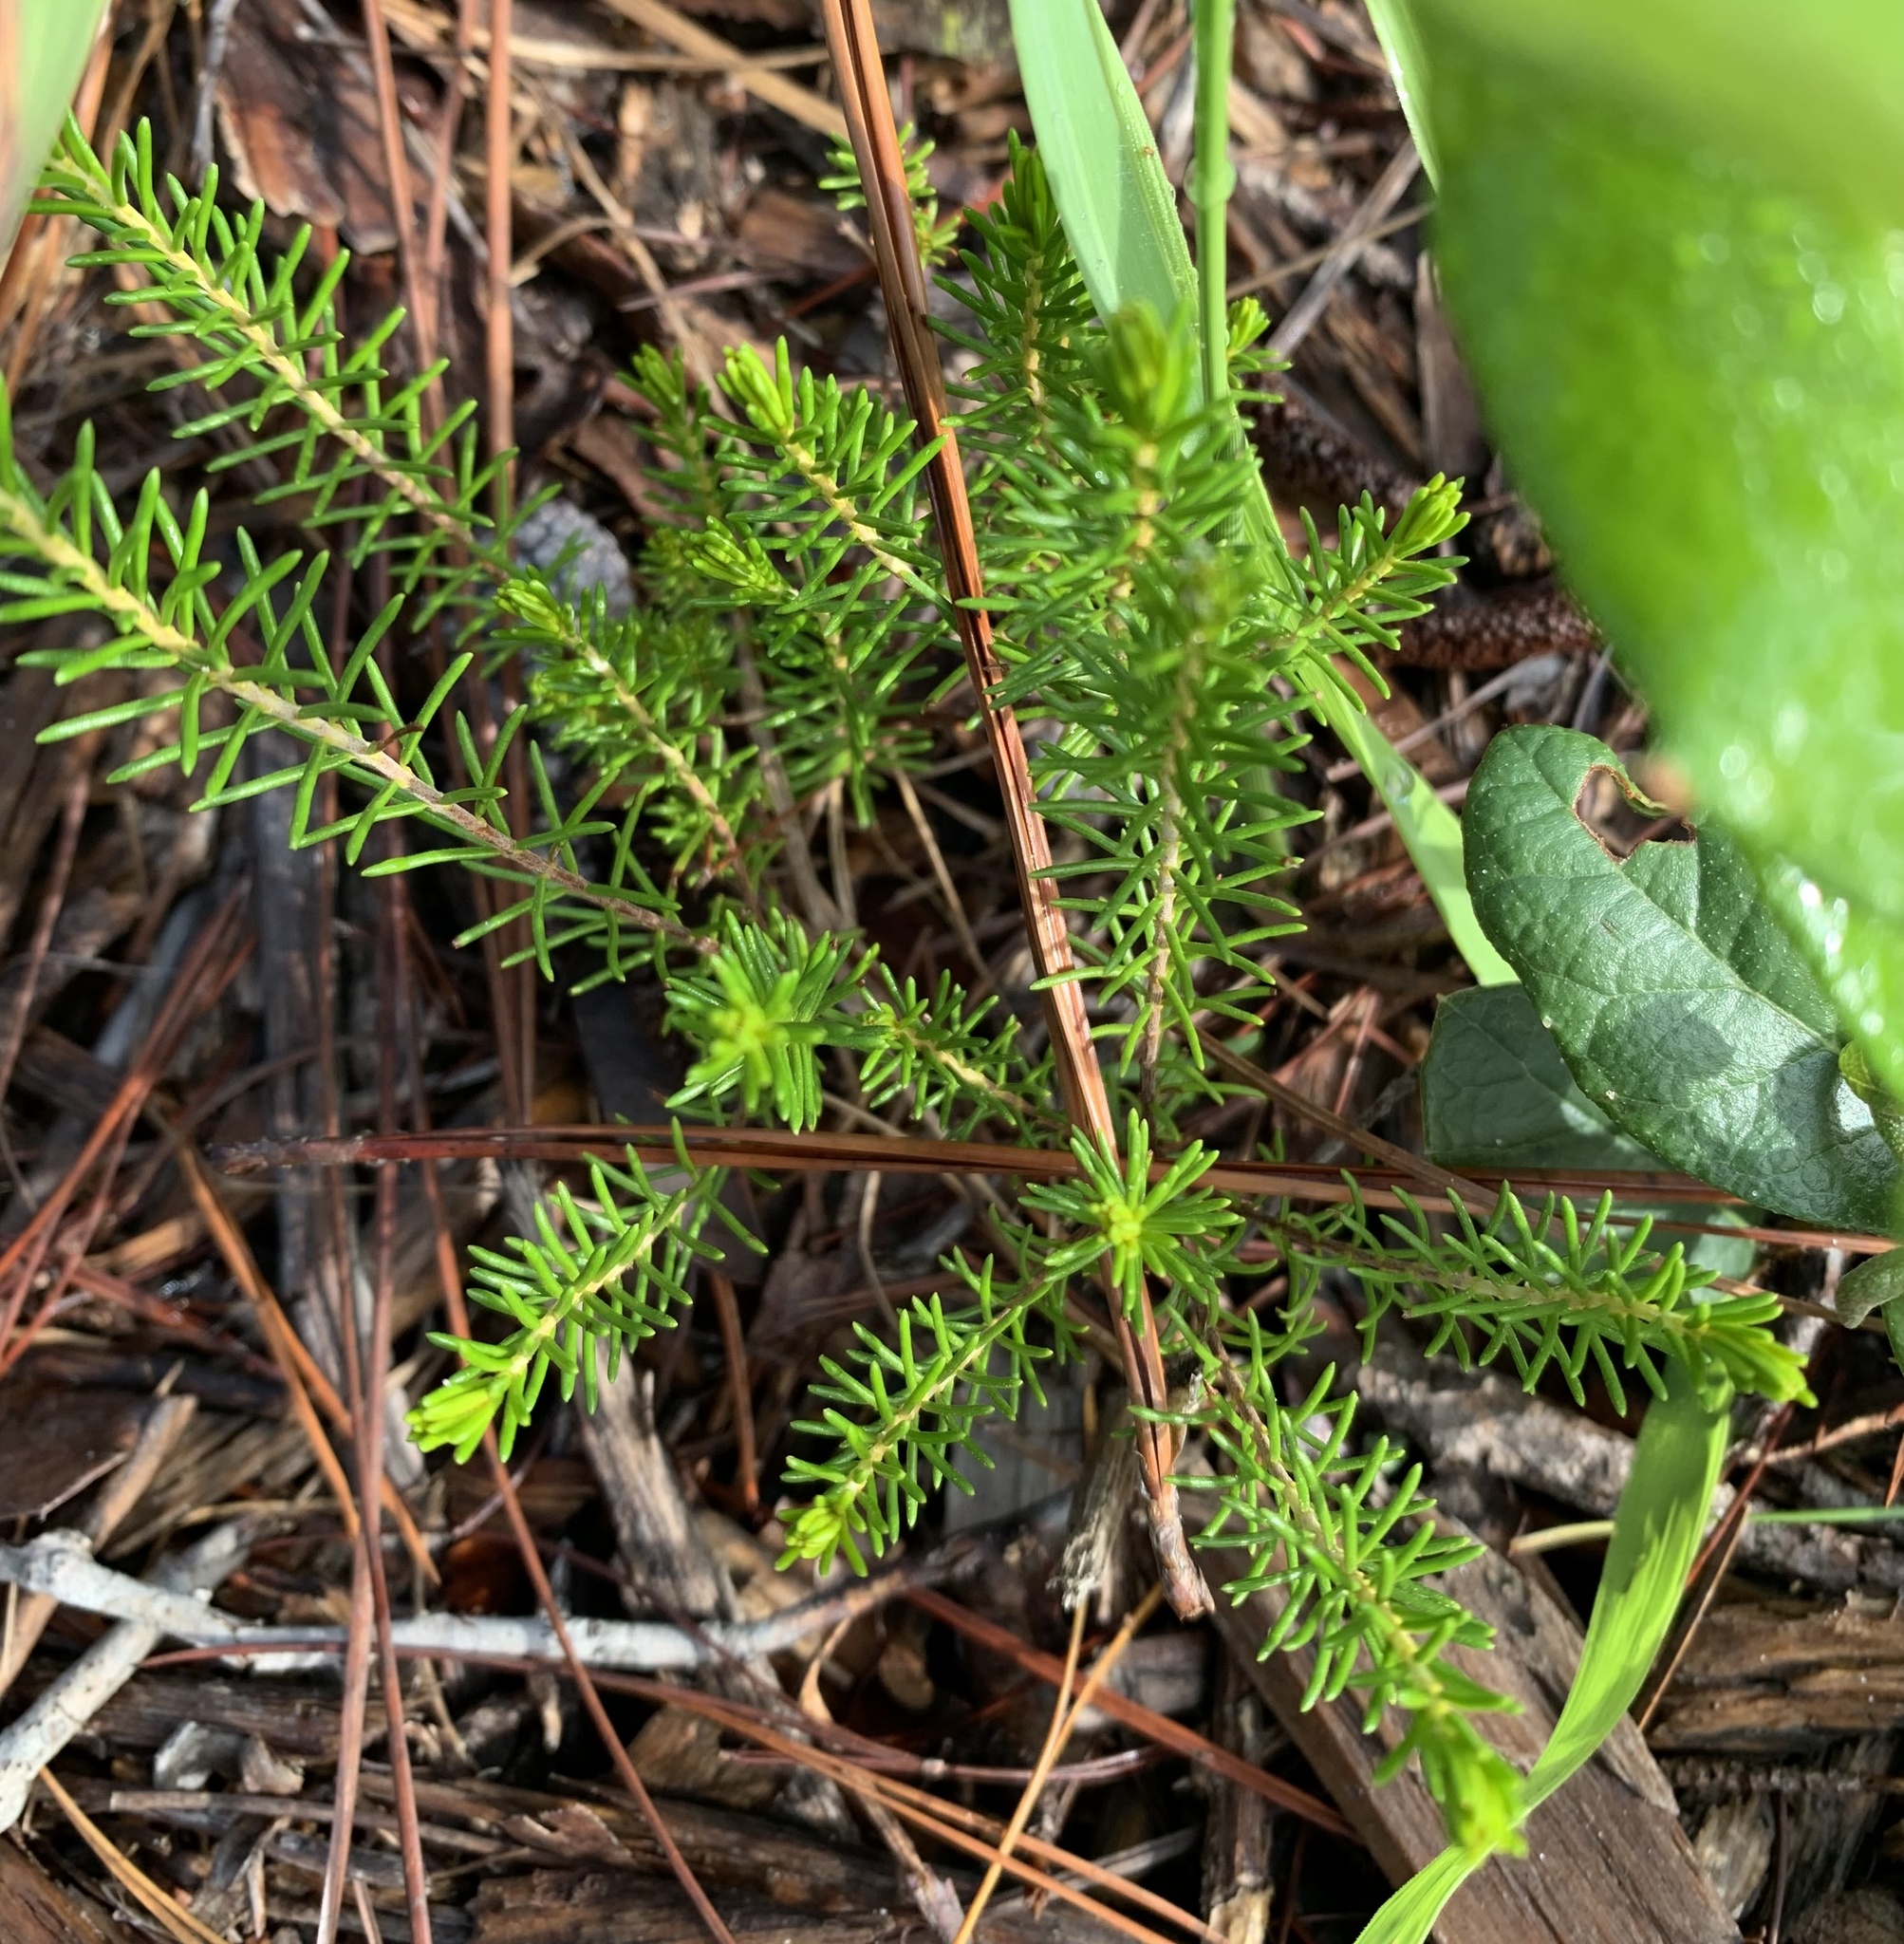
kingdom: Plantae
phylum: Tracheophyta
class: Magnoliopsida
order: Ericales
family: Ericaceae
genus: Ceratiola
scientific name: Ceratiola ericoides
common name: Sandhill-rosemary
